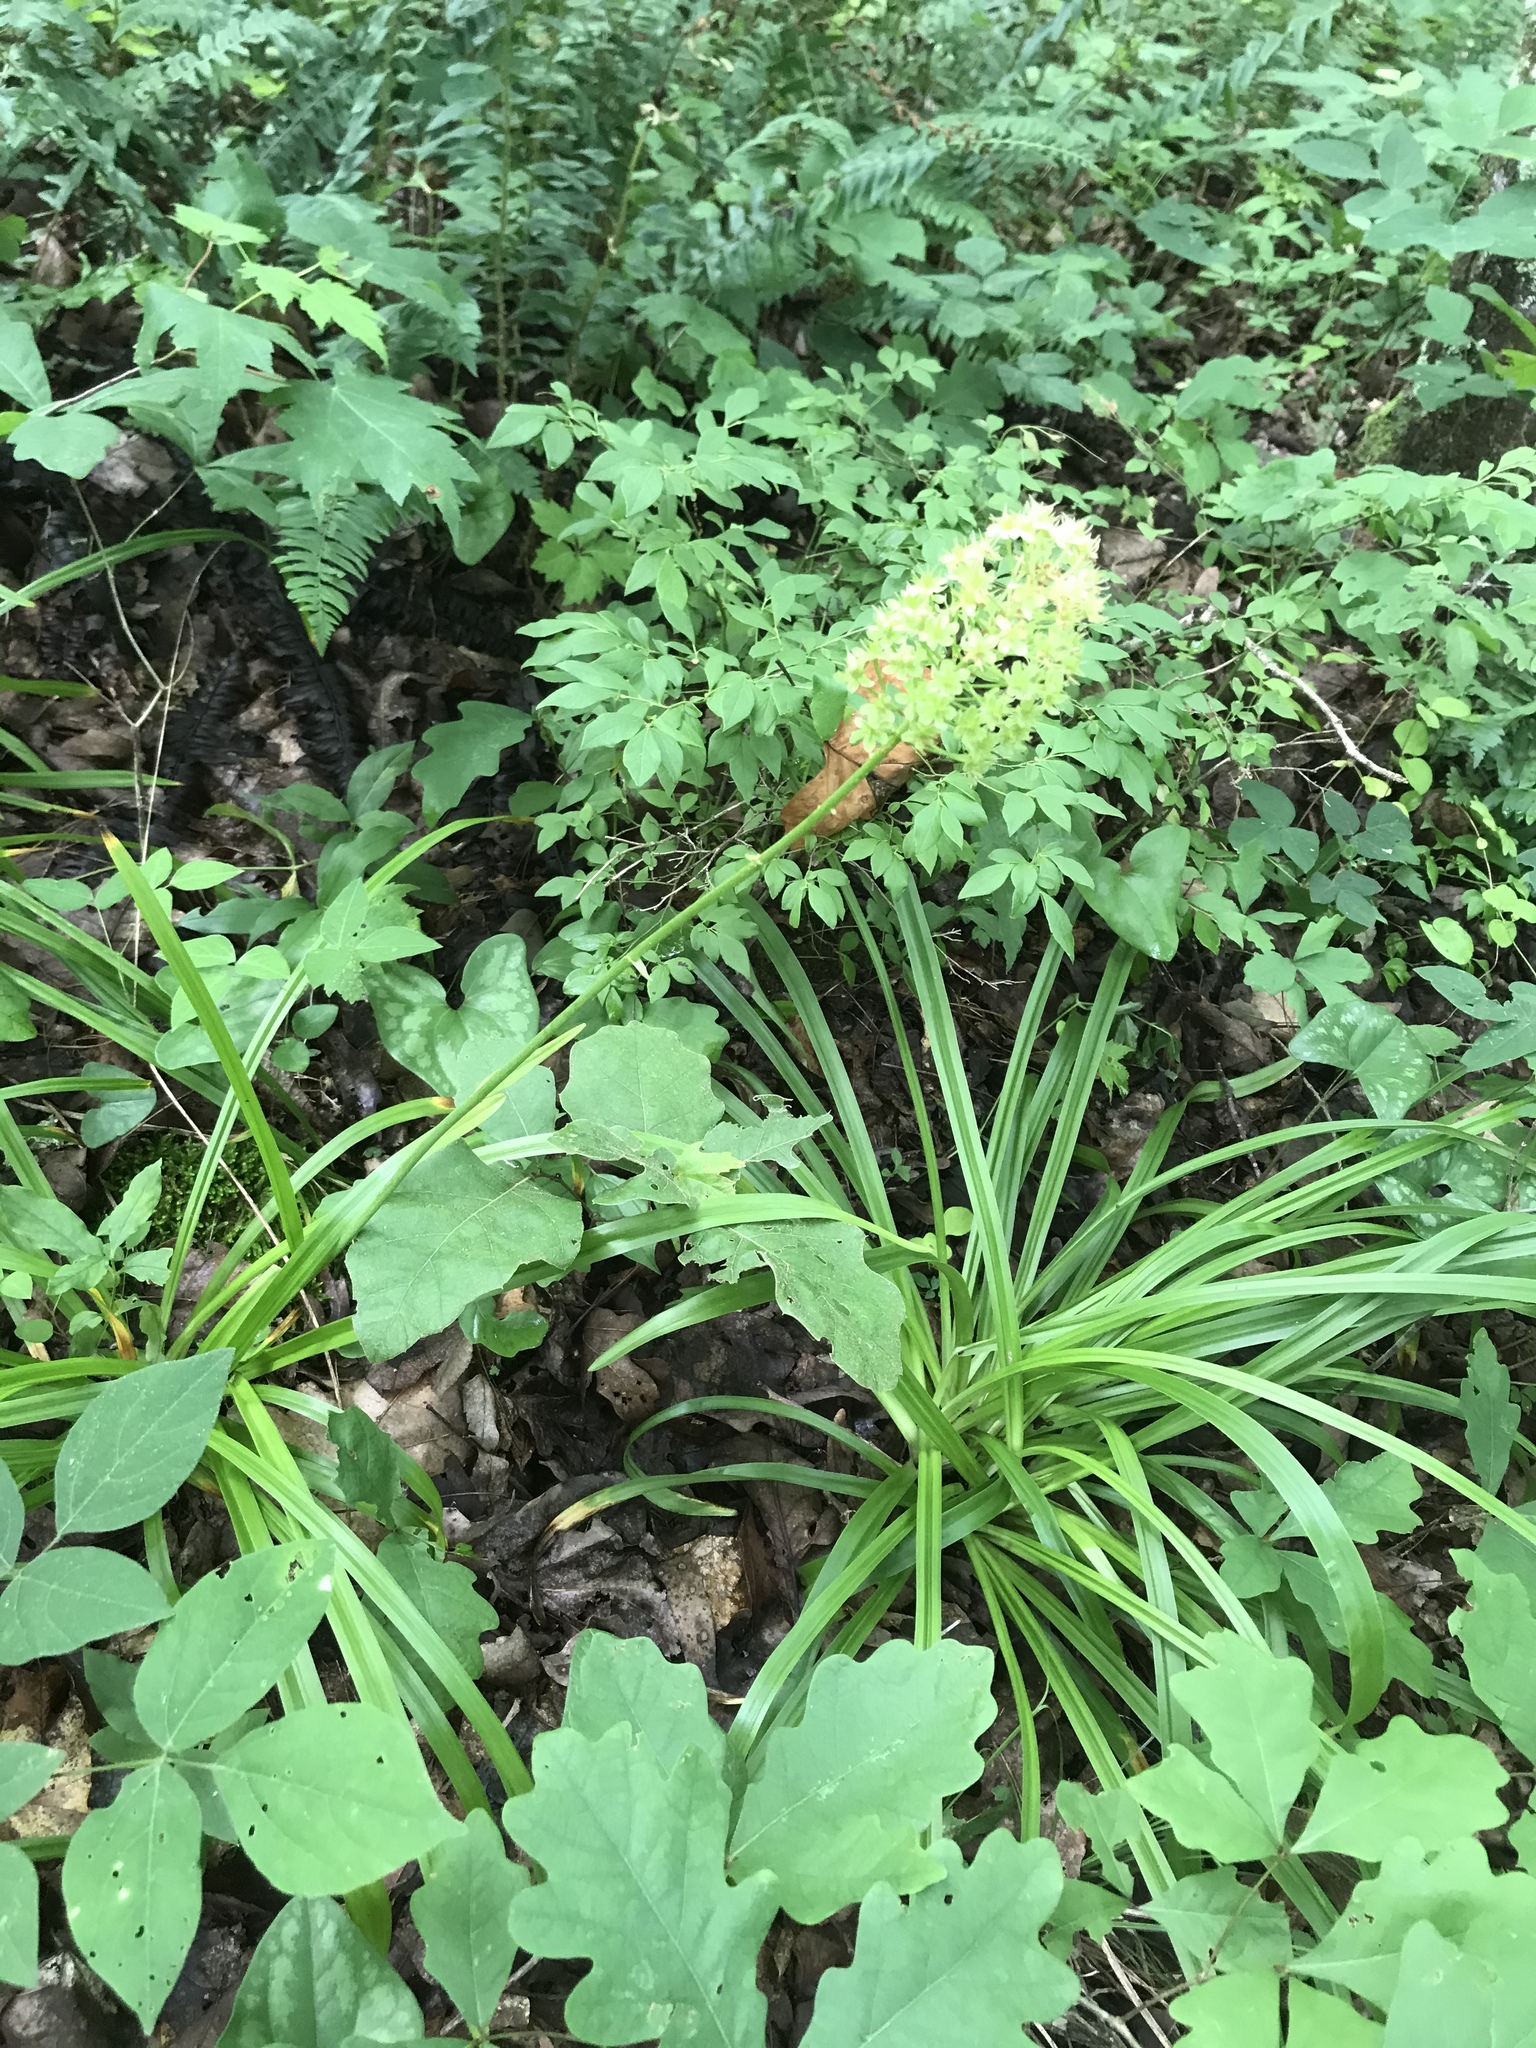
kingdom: Plantae
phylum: Tracheophyta
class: Liliopsida
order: Liliales
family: Melanthiaceae
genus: Amianthium
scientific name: Amianthium muscitoxicum
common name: Fly-poison
